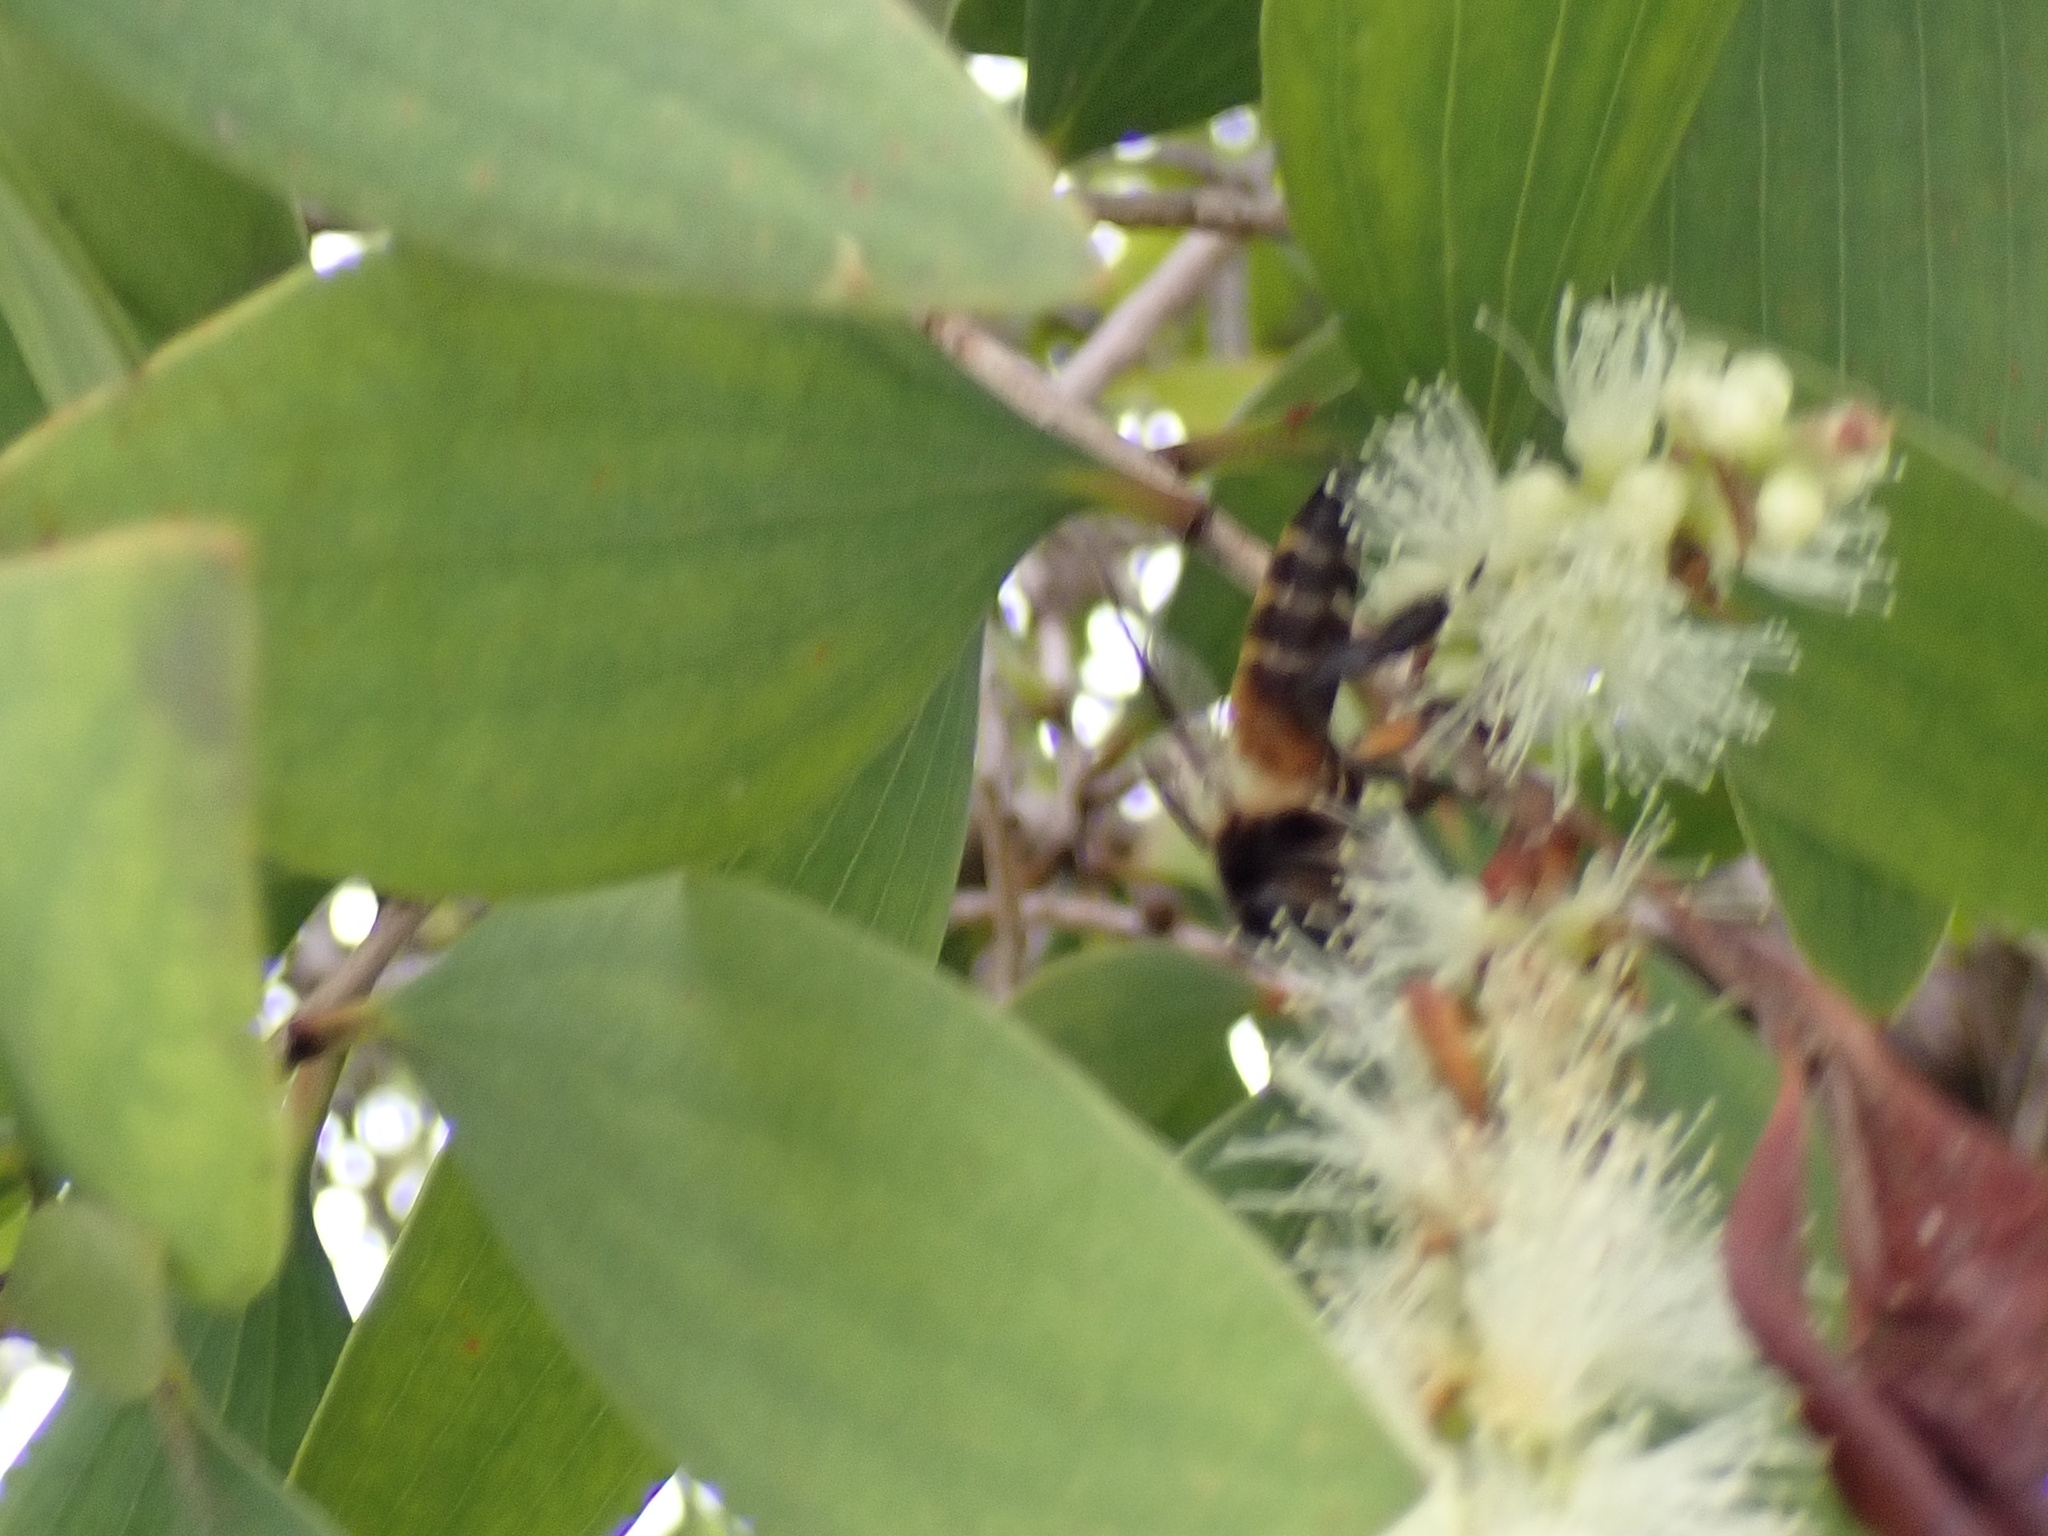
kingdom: Animalia
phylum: Arthropoda
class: Insecta
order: Hymenoptera
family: Apidae
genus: Apis
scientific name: Apis dorsata
